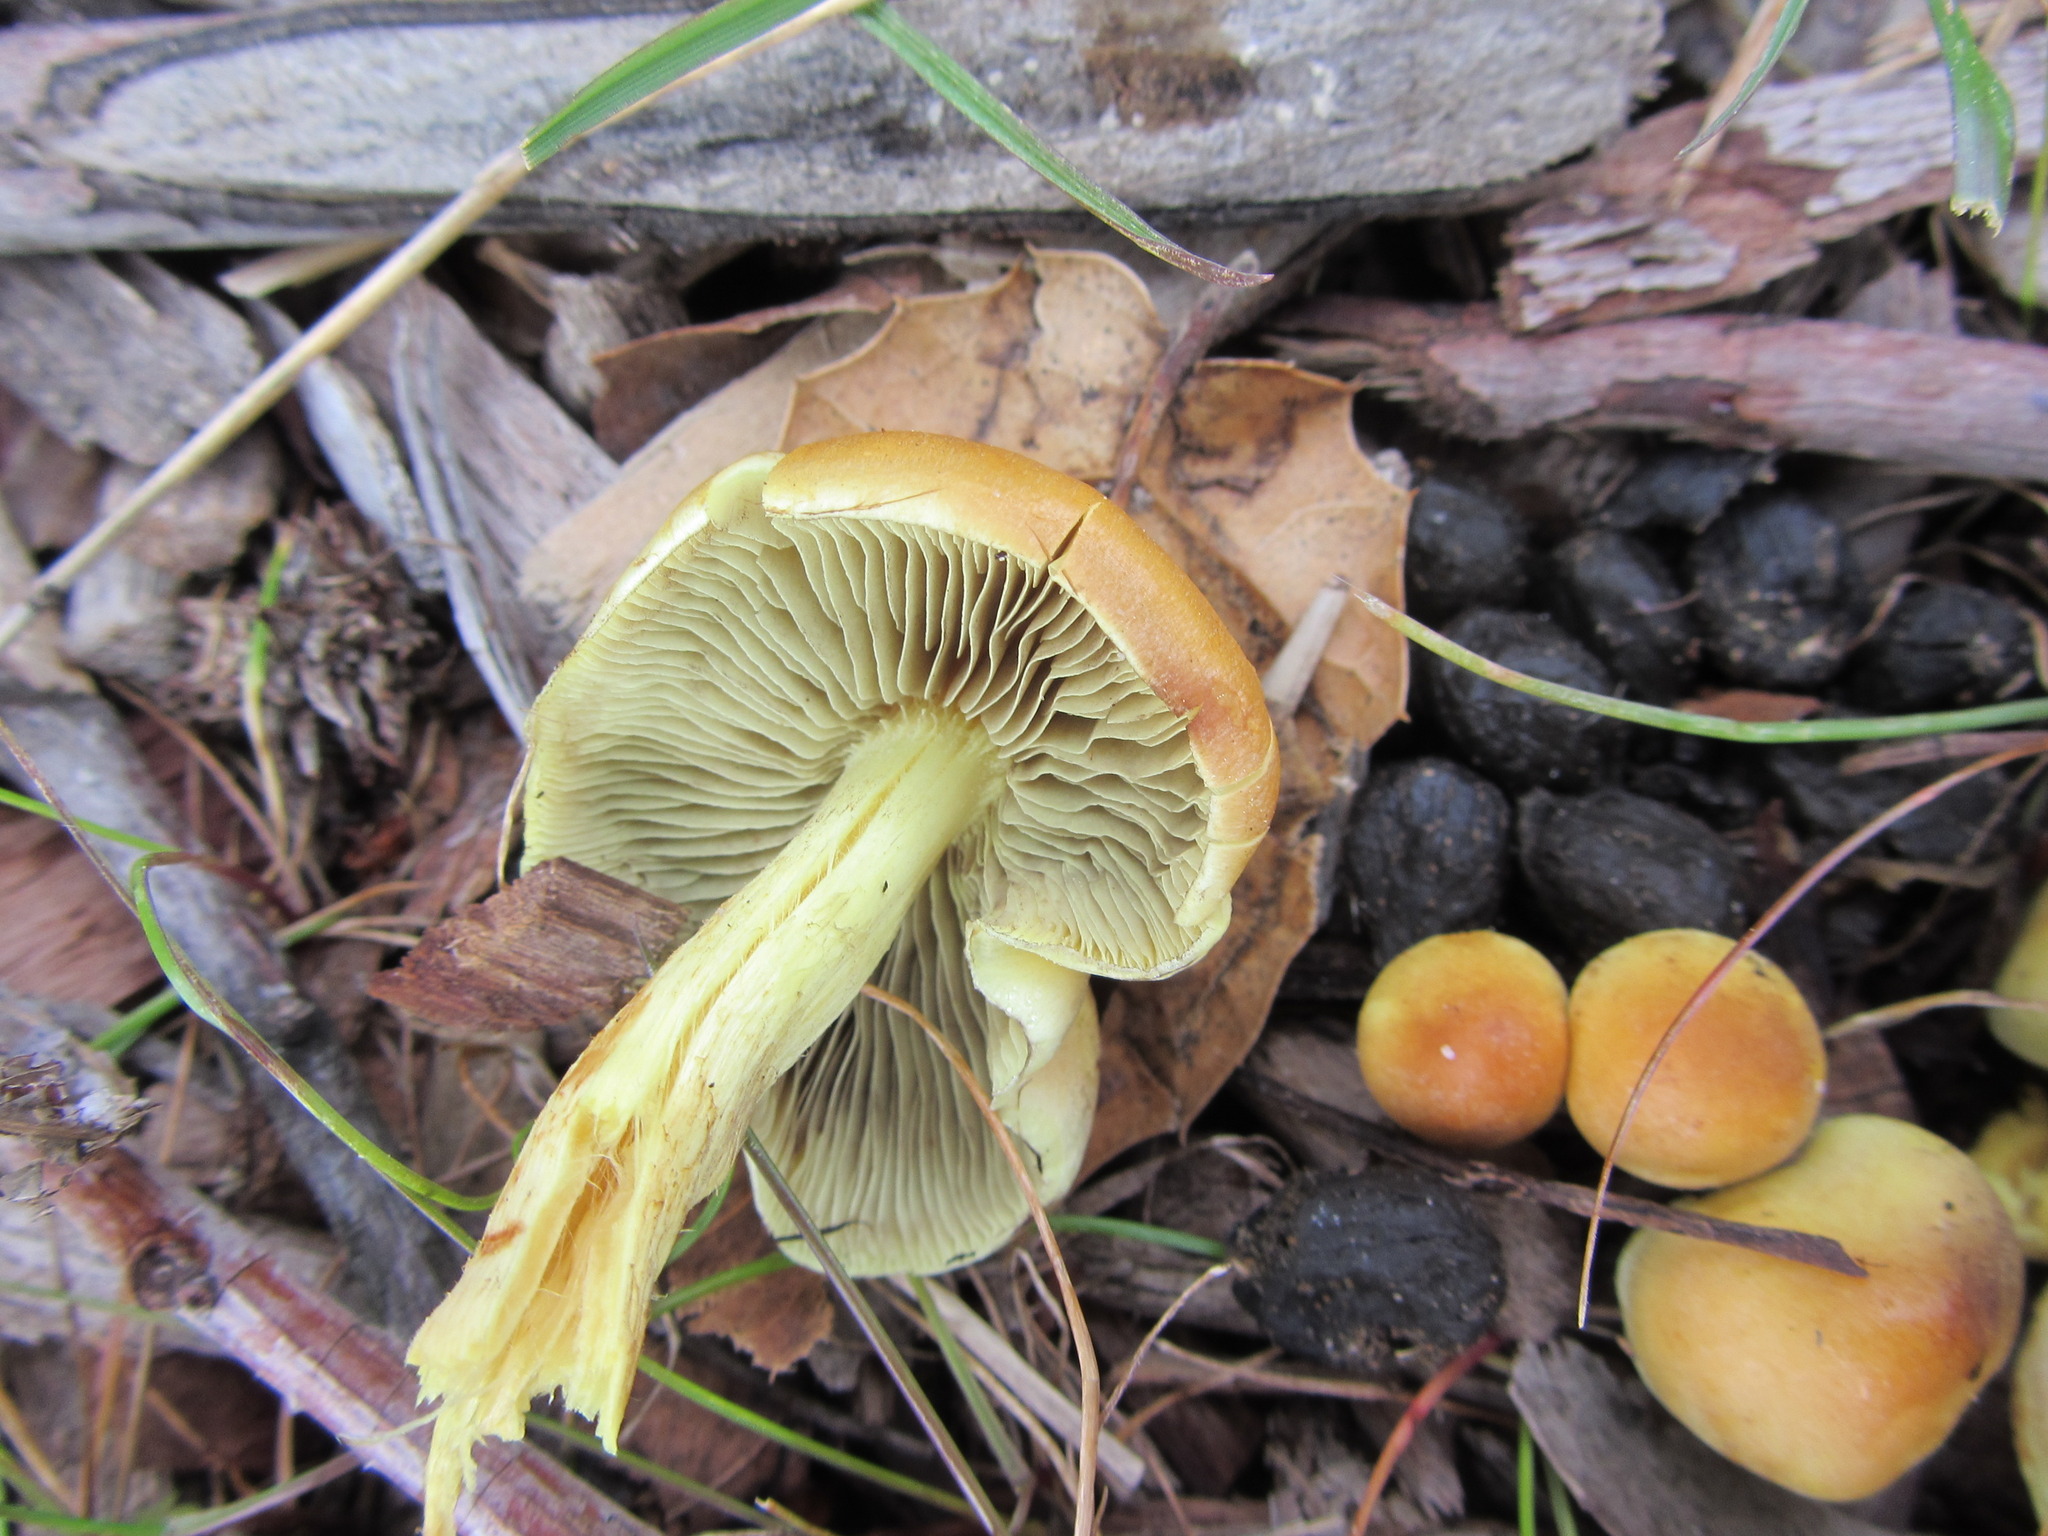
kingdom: Fungi
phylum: Basidiomycota
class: Agaricomycetes
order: Agaricales
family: Strophariaceae
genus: Hypholoma
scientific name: Hypholoma fasciculare
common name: Sulphur tuft
